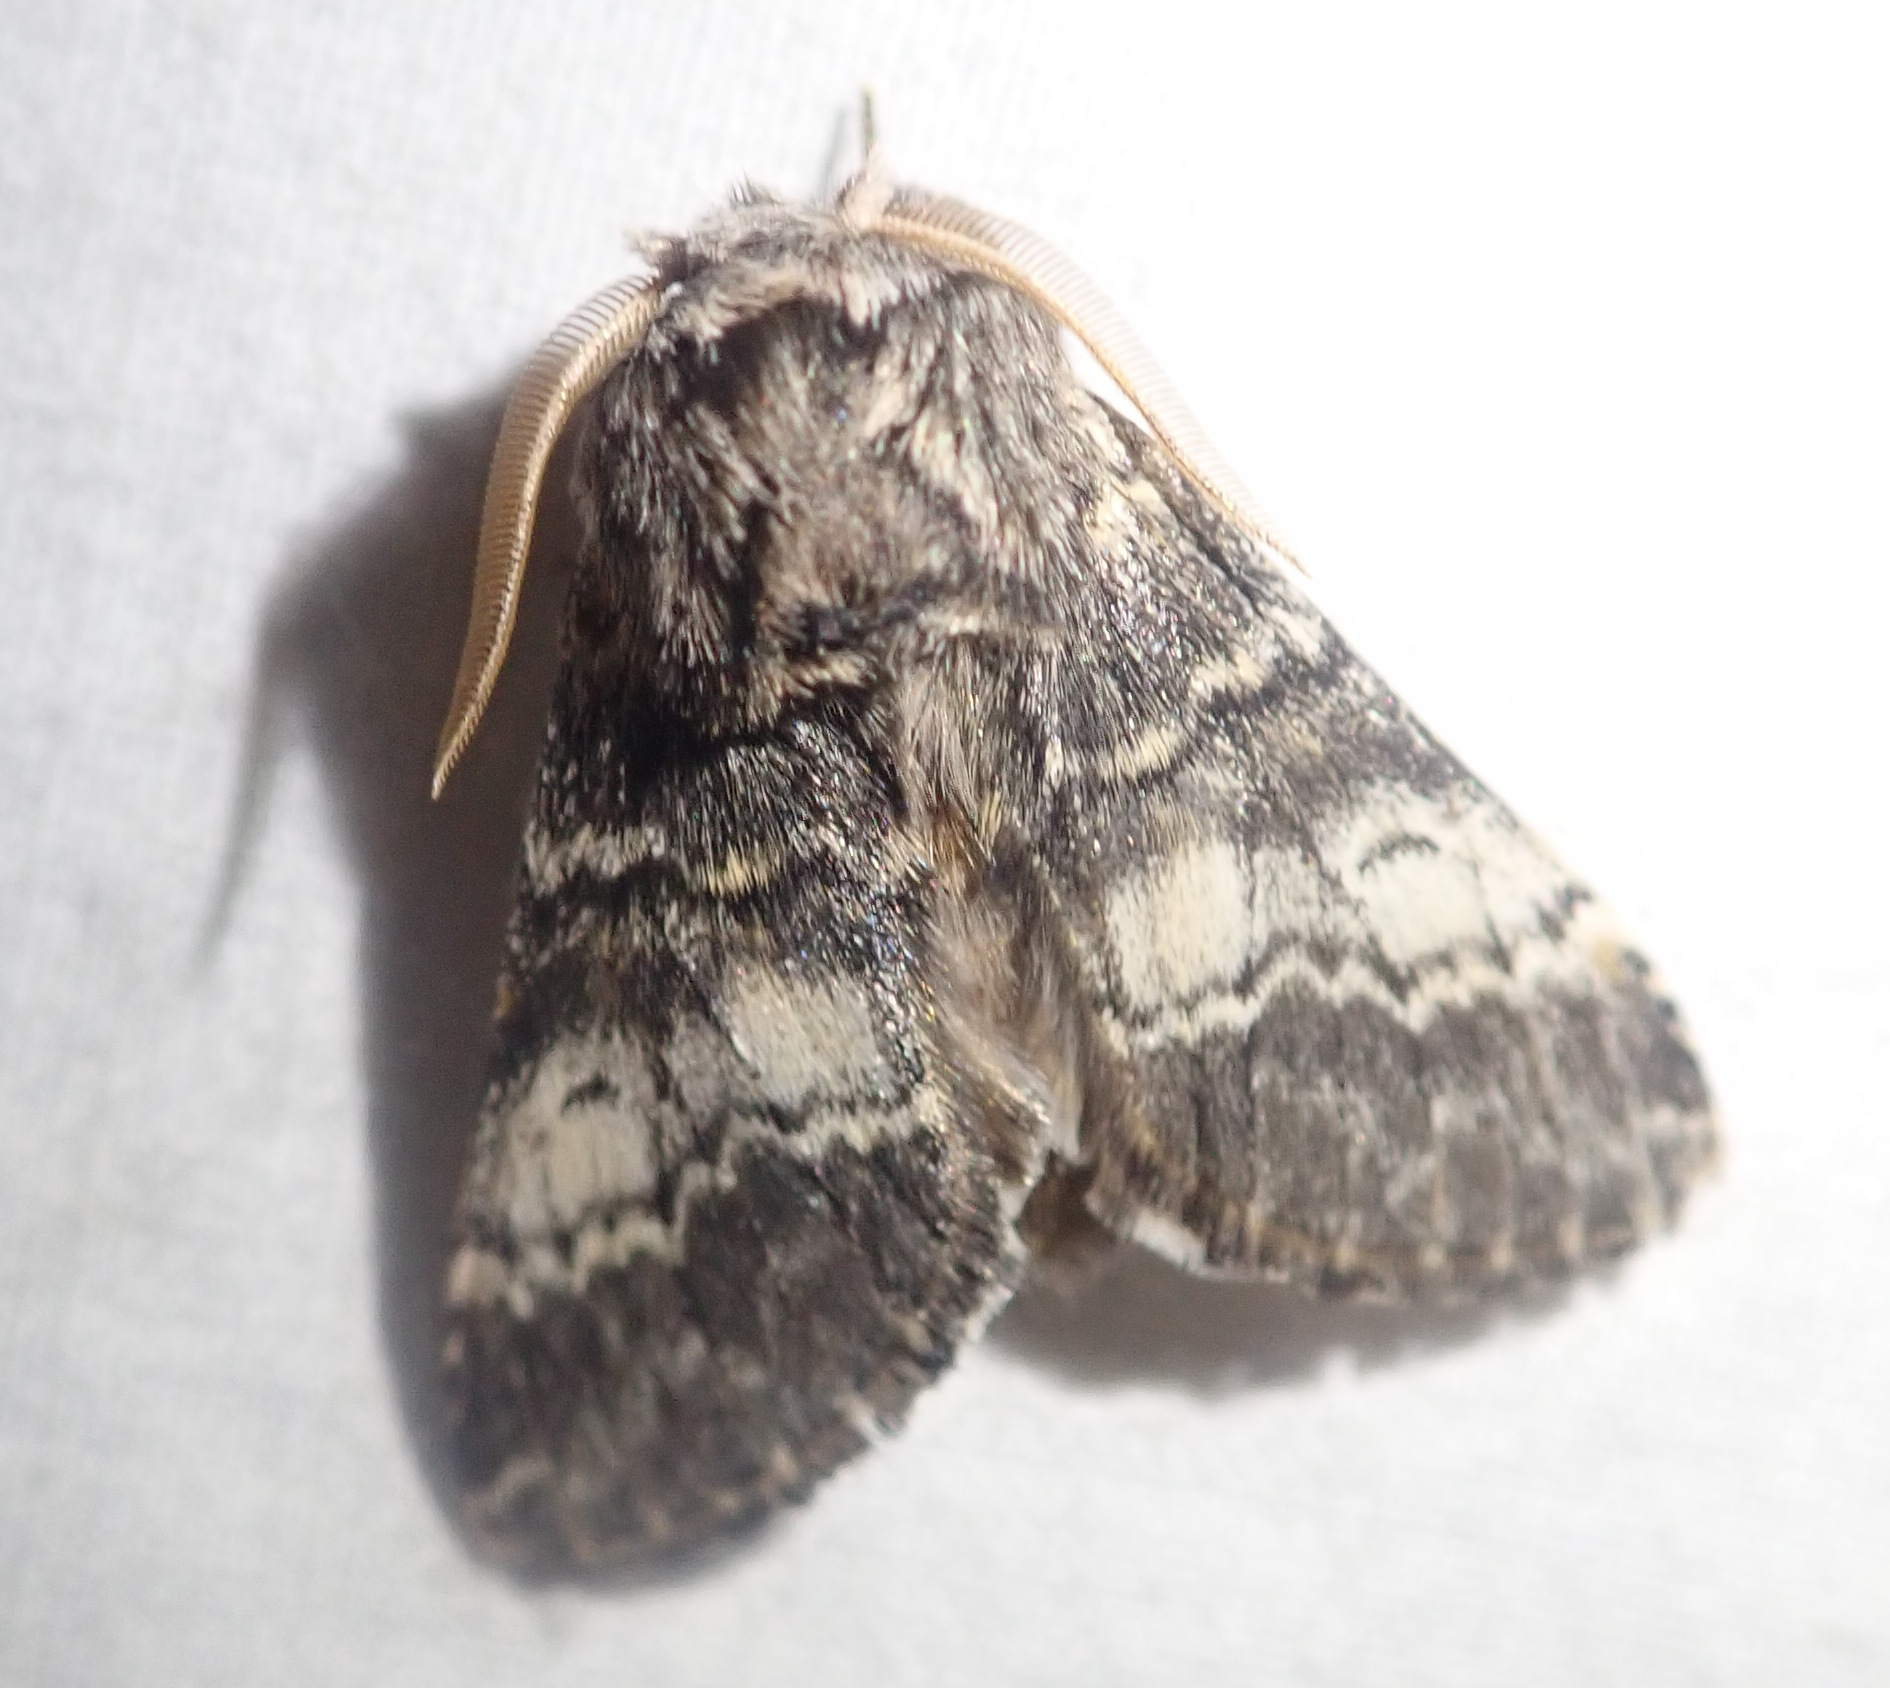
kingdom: Animalia
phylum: Arthropoda
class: Insecta
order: Lepidoptera
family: Notodontidae
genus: Drymonia
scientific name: Drymonia ruficornis
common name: Lunar marbled brown
